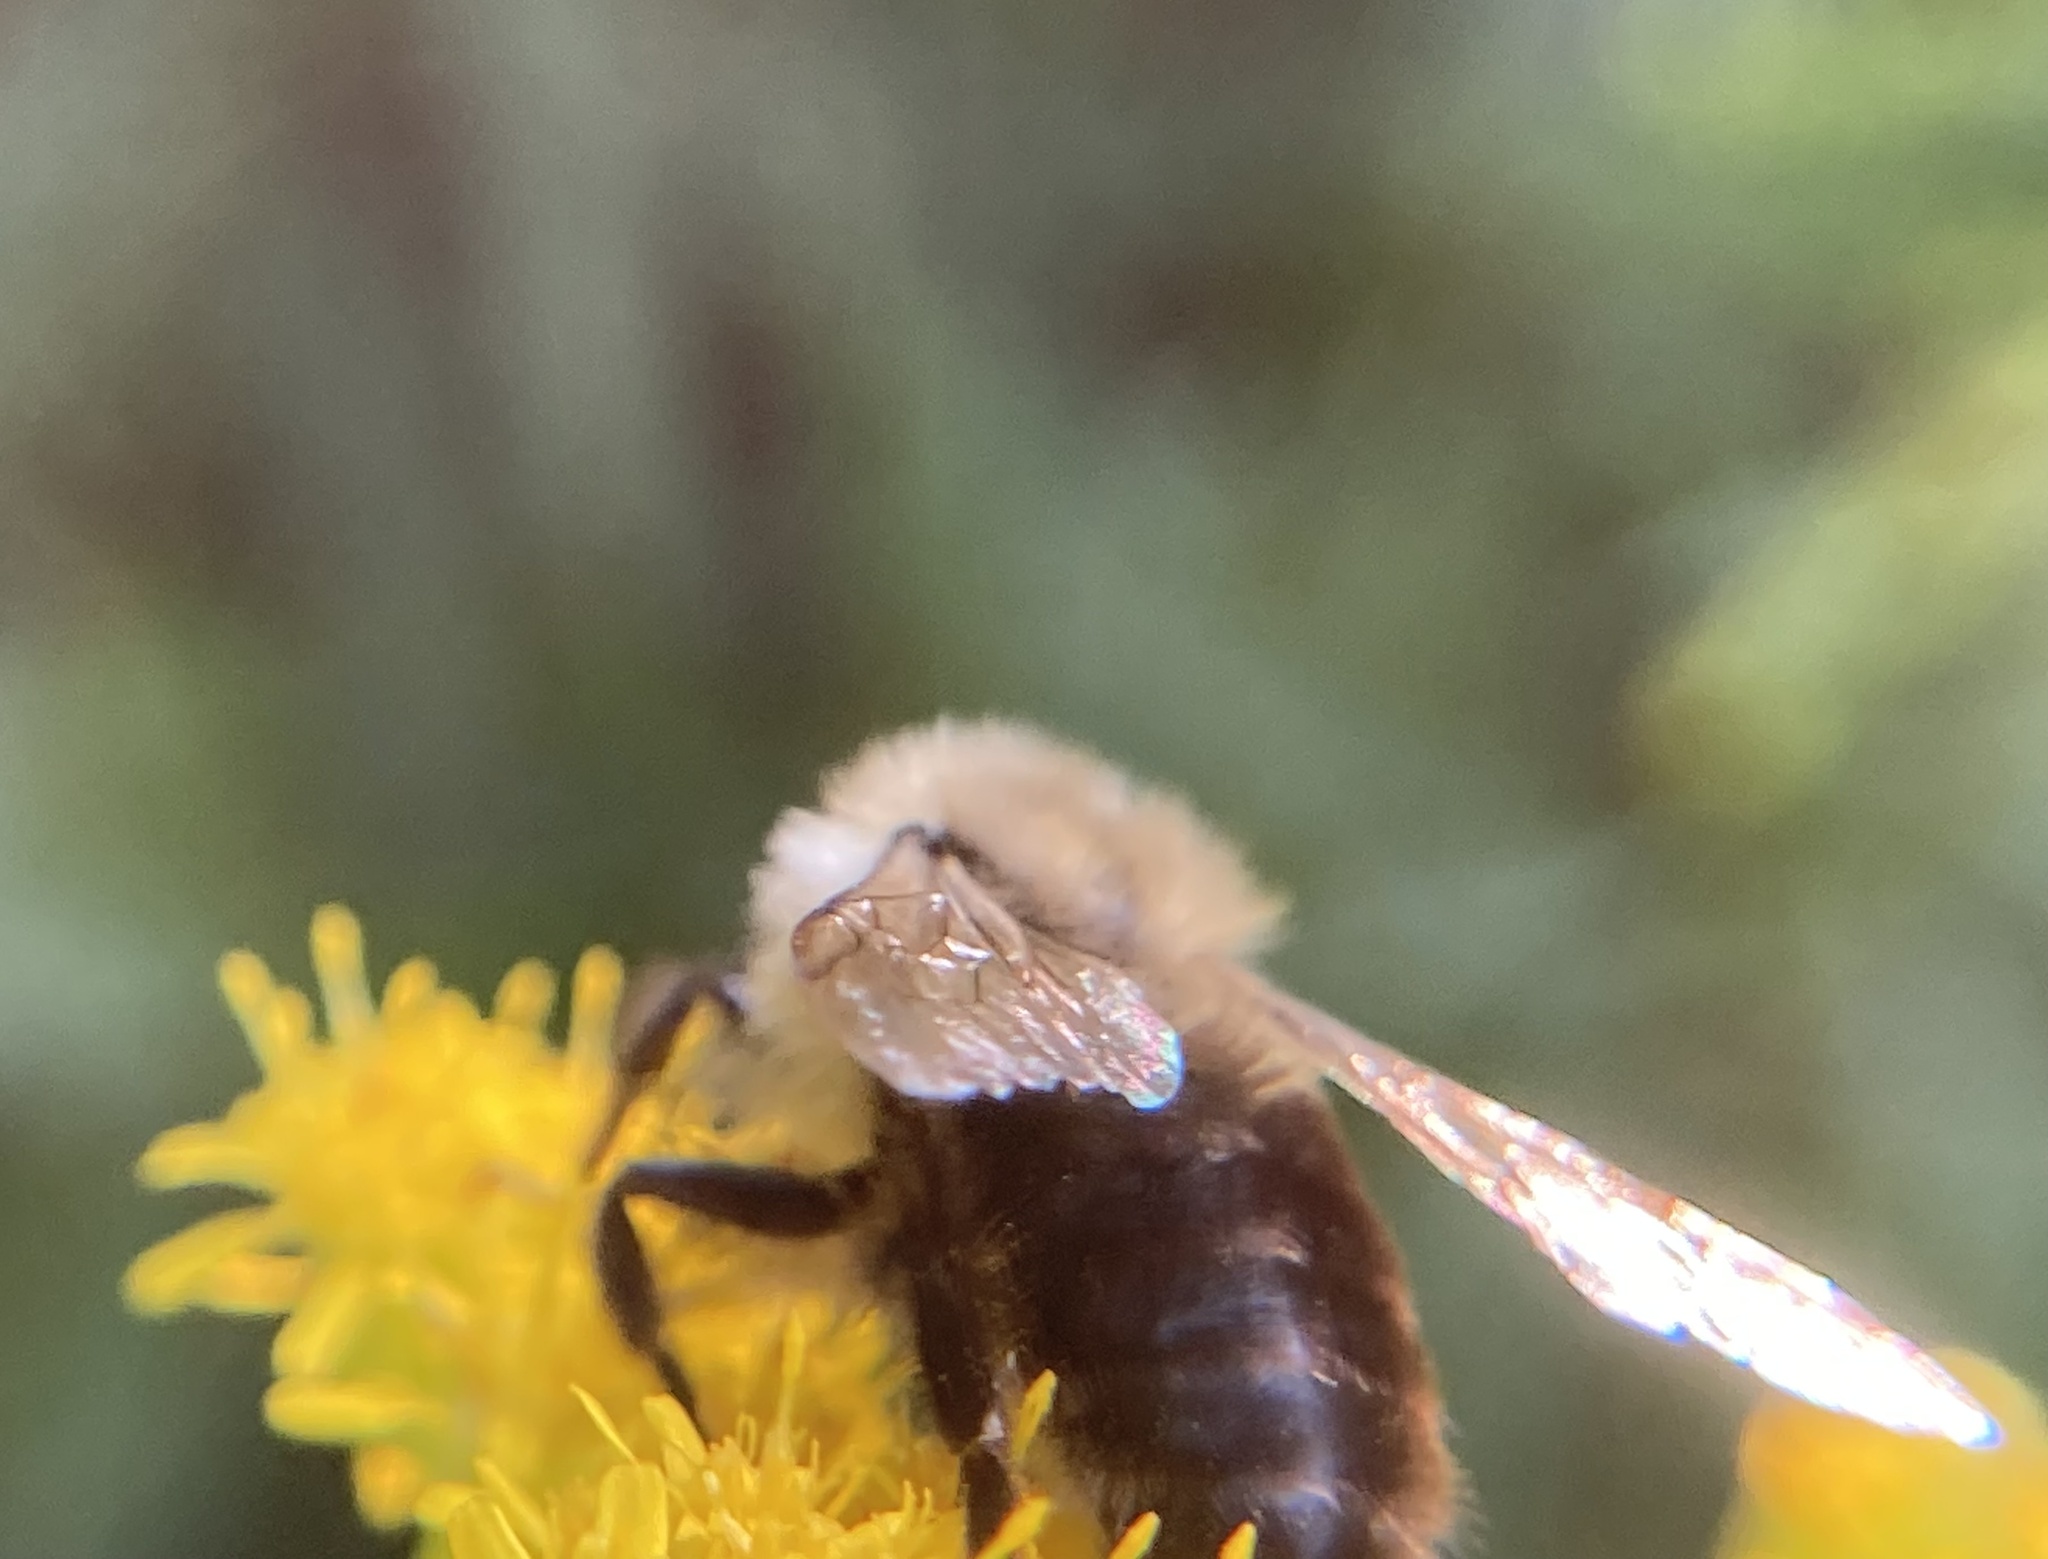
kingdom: Animalia
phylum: Arthropoda
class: Insecta
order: Hymenoptera
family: Apidae
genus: Bombus
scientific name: Bombus impatiens
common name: Common eastern bumble bee
